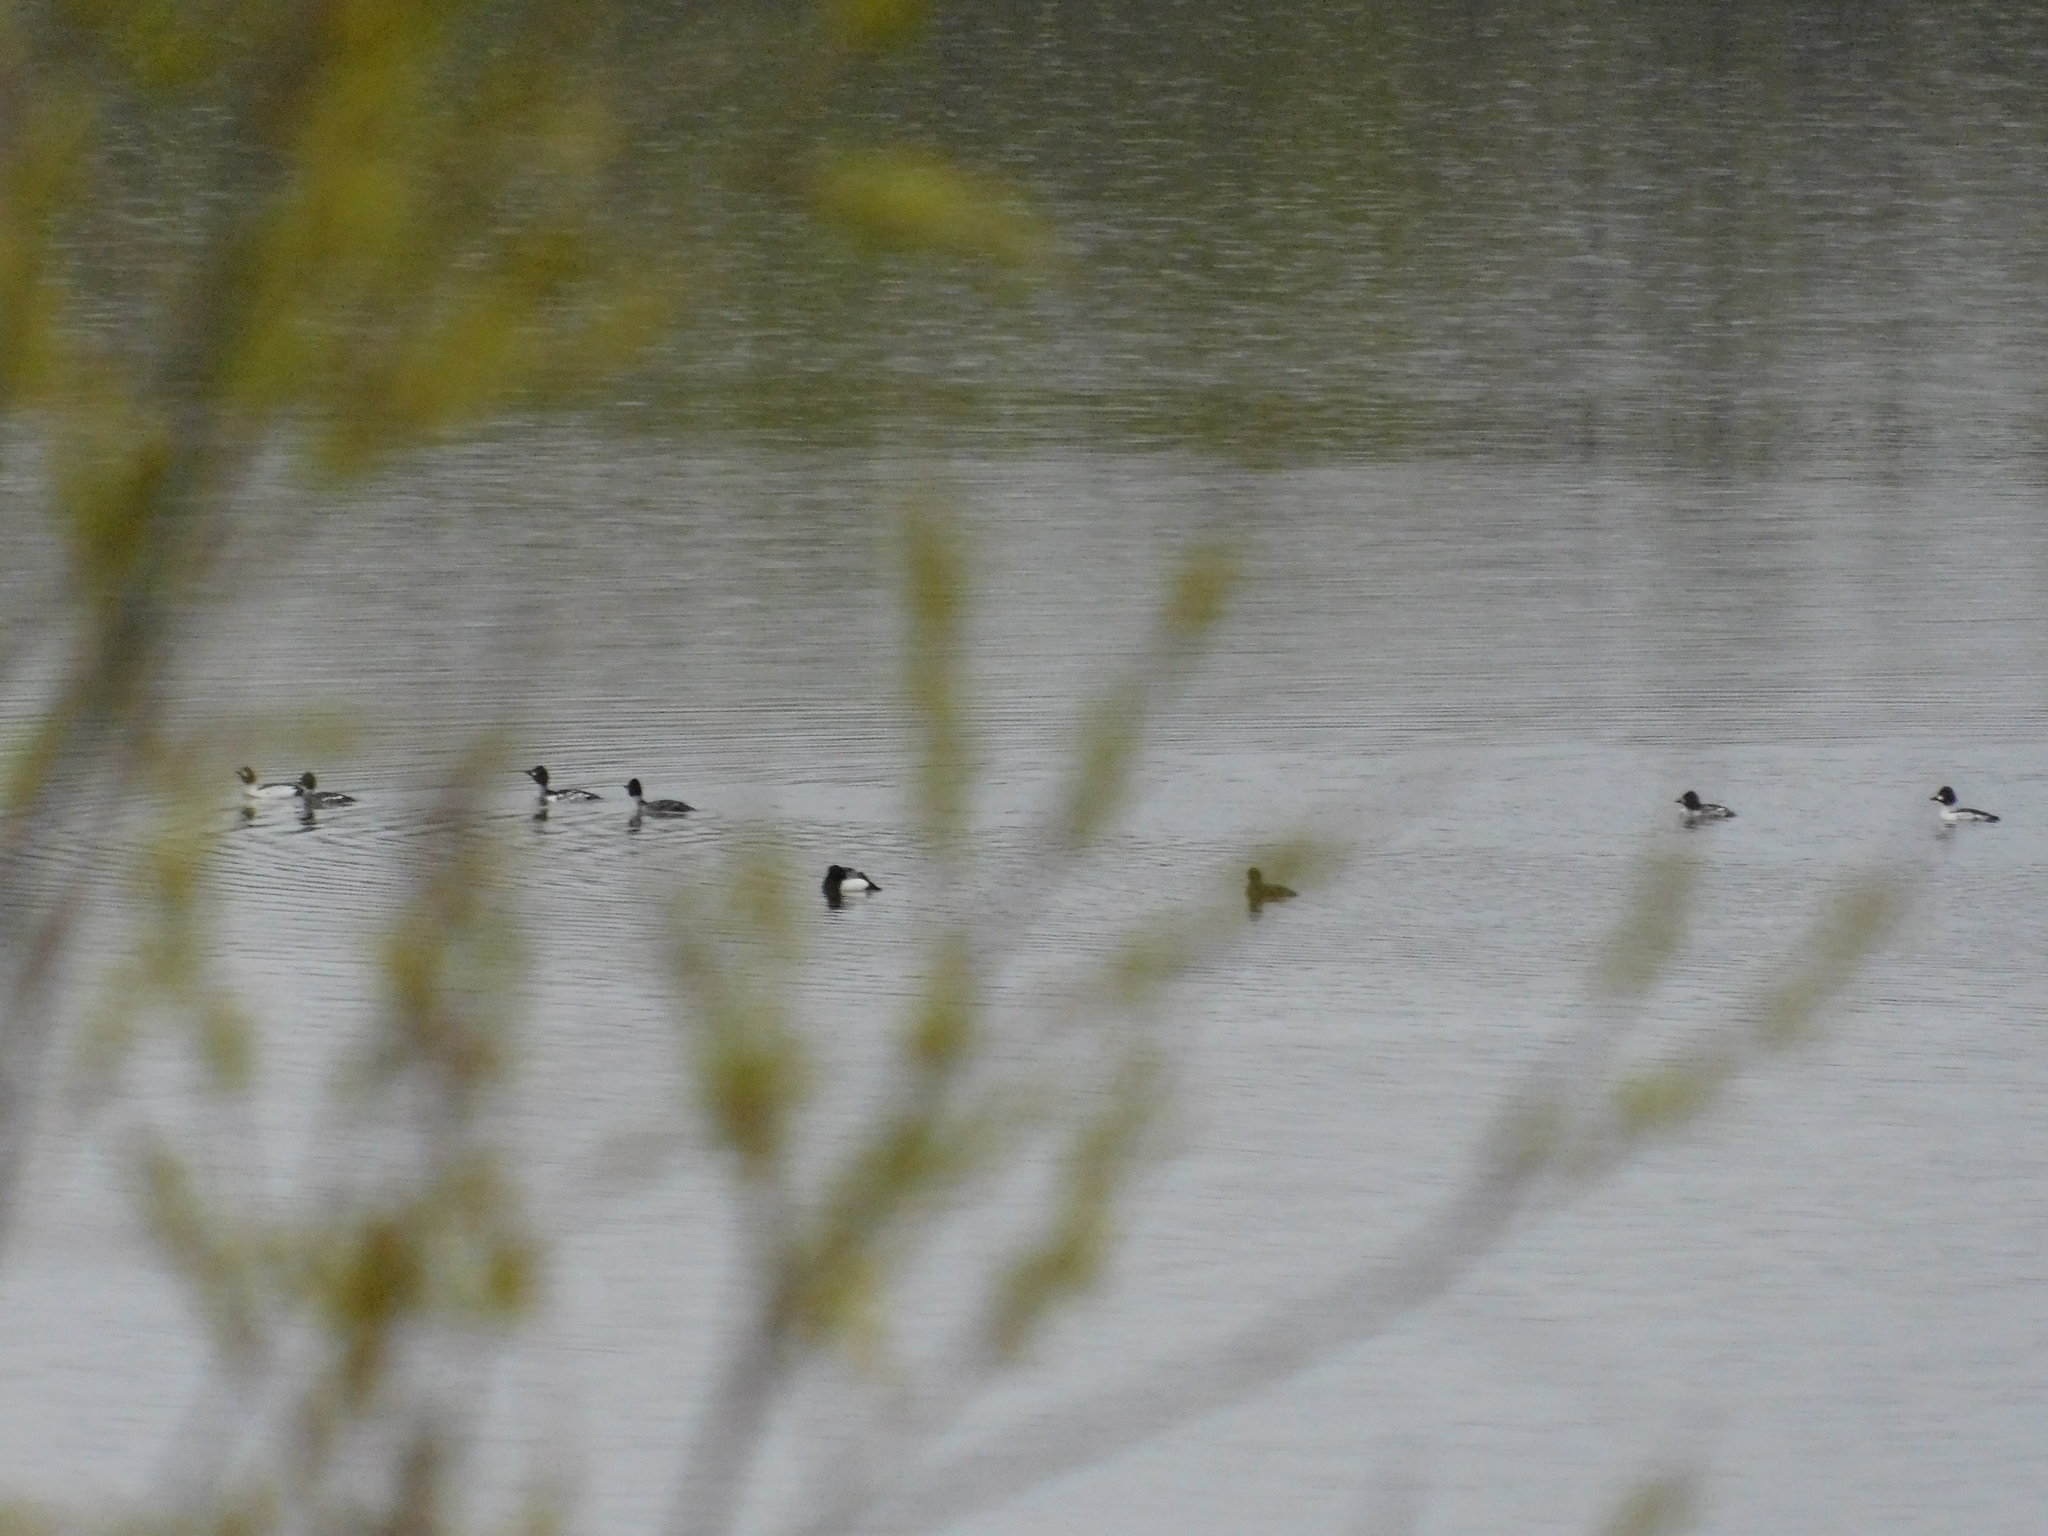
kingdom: Animalia
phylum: Chordata
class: Aves
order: Anseriformes
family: Anatidae
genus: Bucephala
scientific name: Bucephala clangula
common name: Common goldeneye
